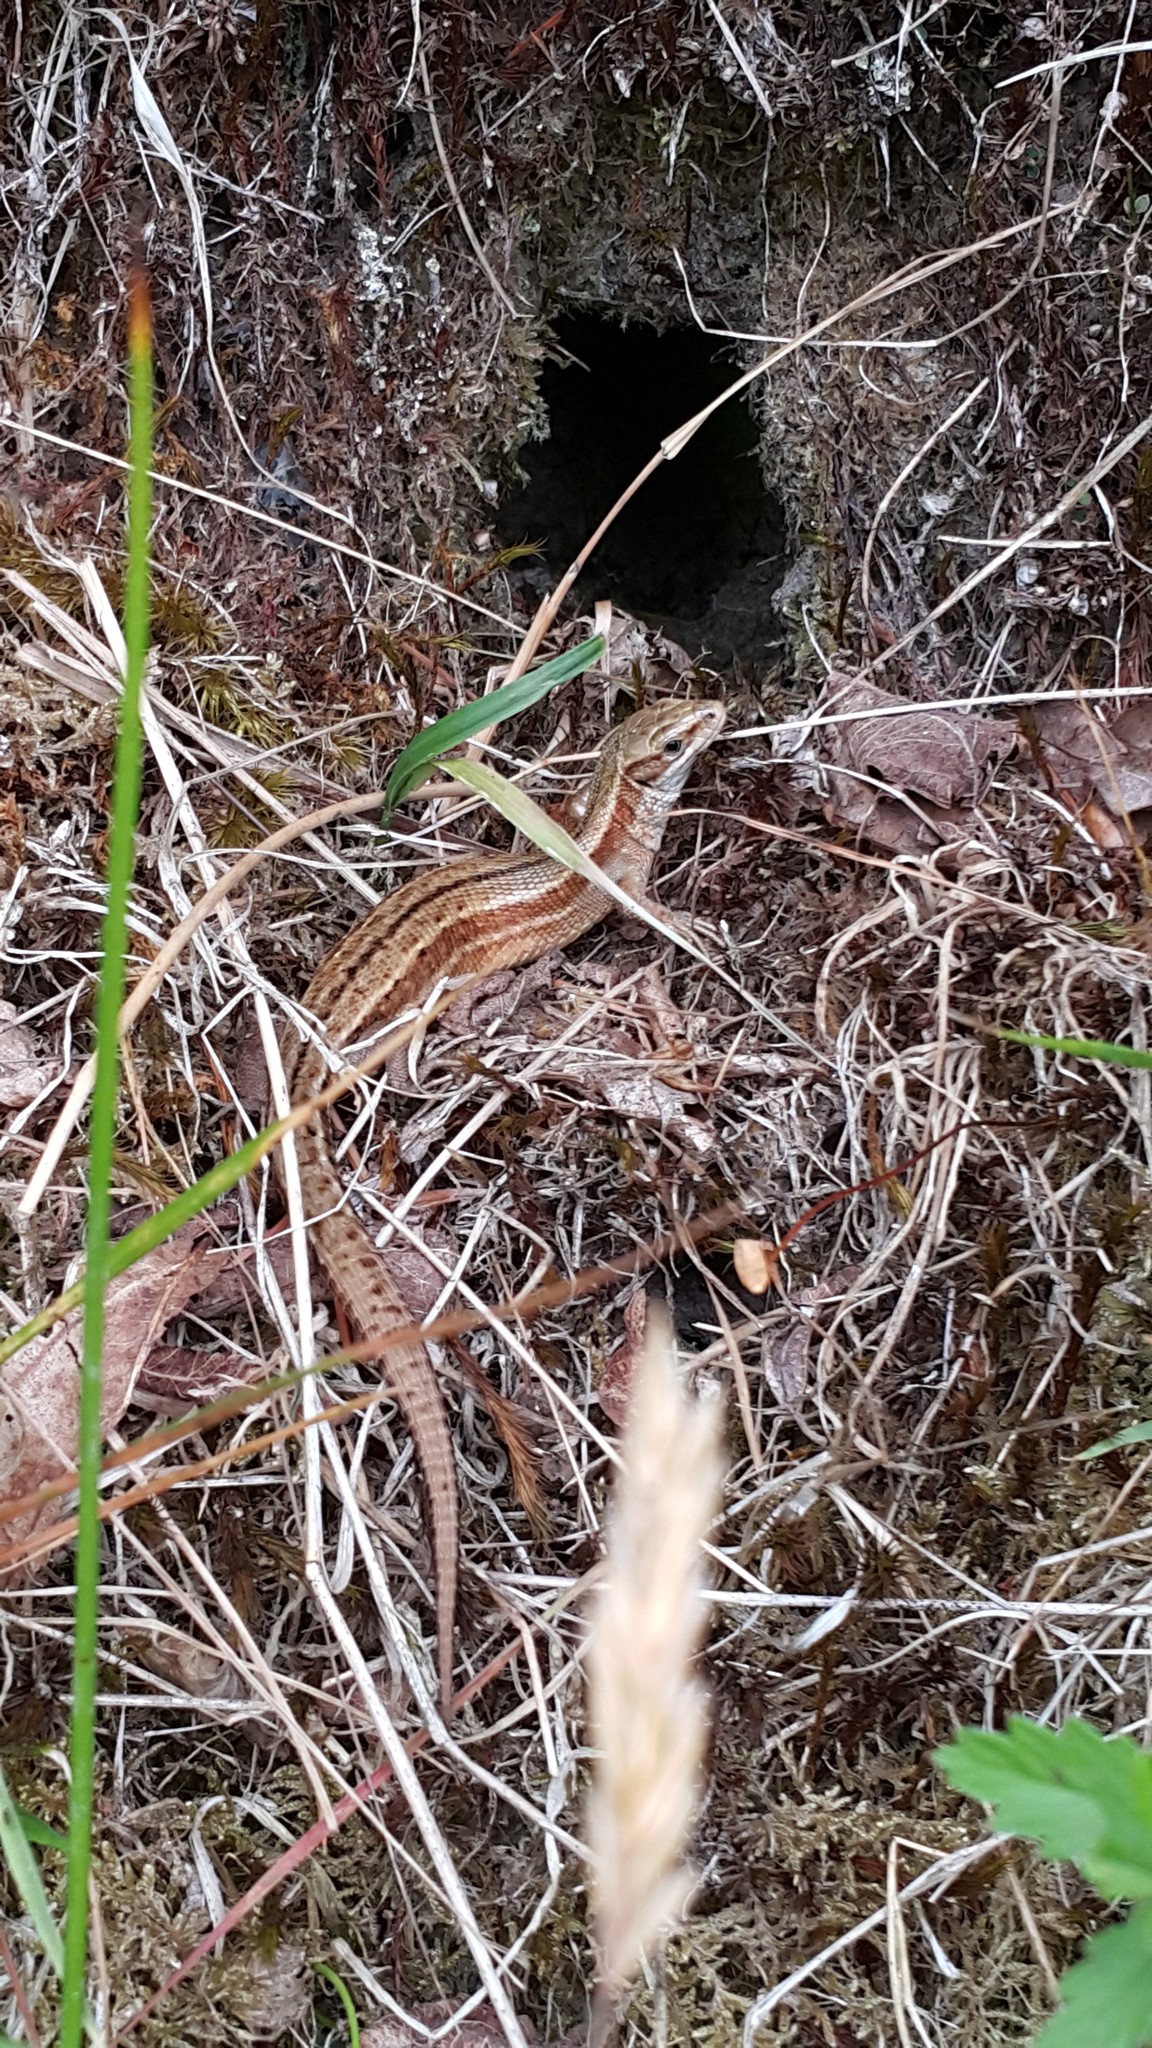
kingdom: Animalia
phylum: Chordata
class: Squamata
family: Lacertidae
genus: Zootoca
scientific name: Zootoca vivipara
